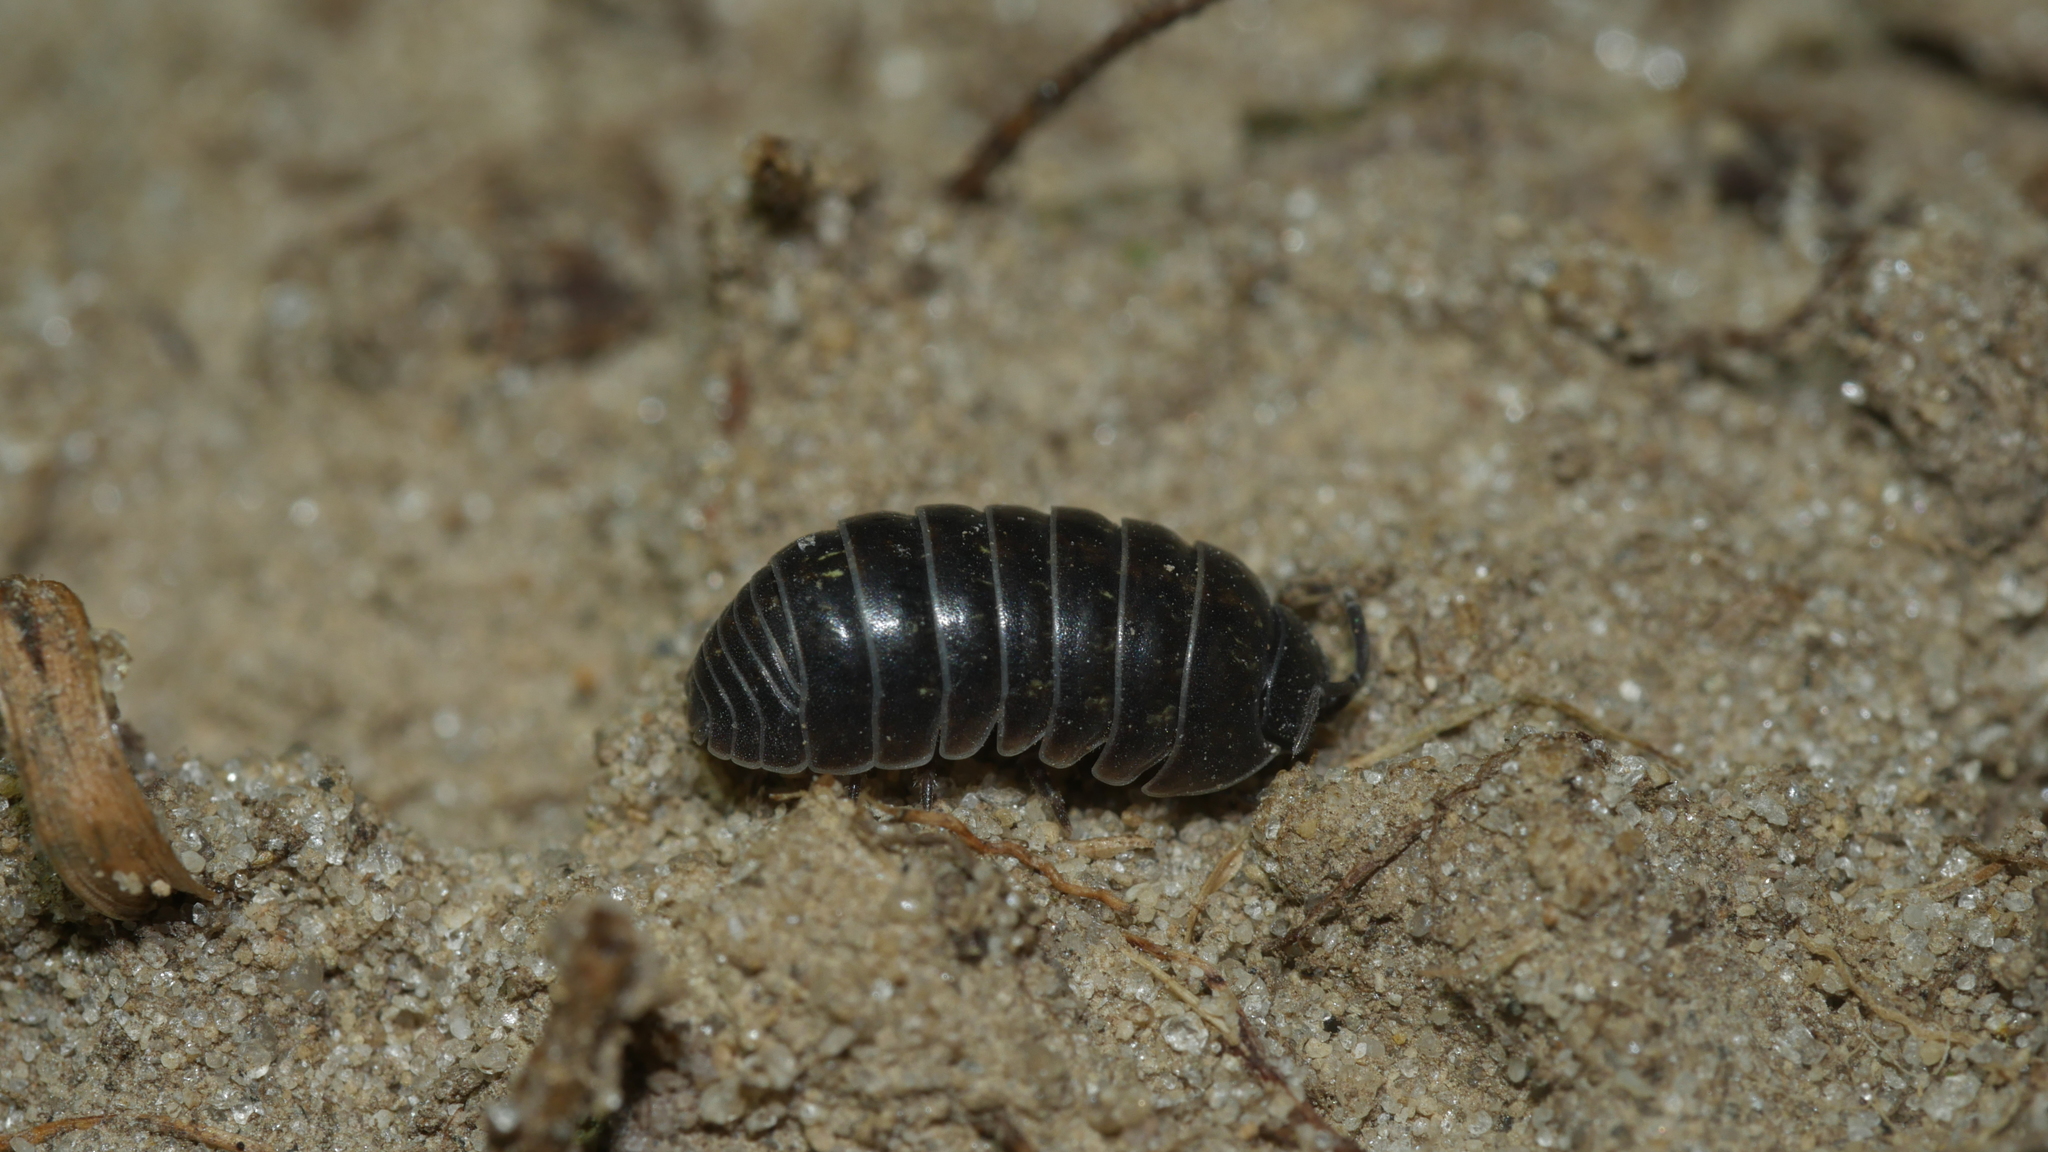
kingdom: Animalia
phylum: Arthropoda
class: Malacostraca
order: Isopoda
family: Armadillidiidae
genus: Armadillidium
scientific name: Armadillidium vulgare
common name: Common pill woodlouse
